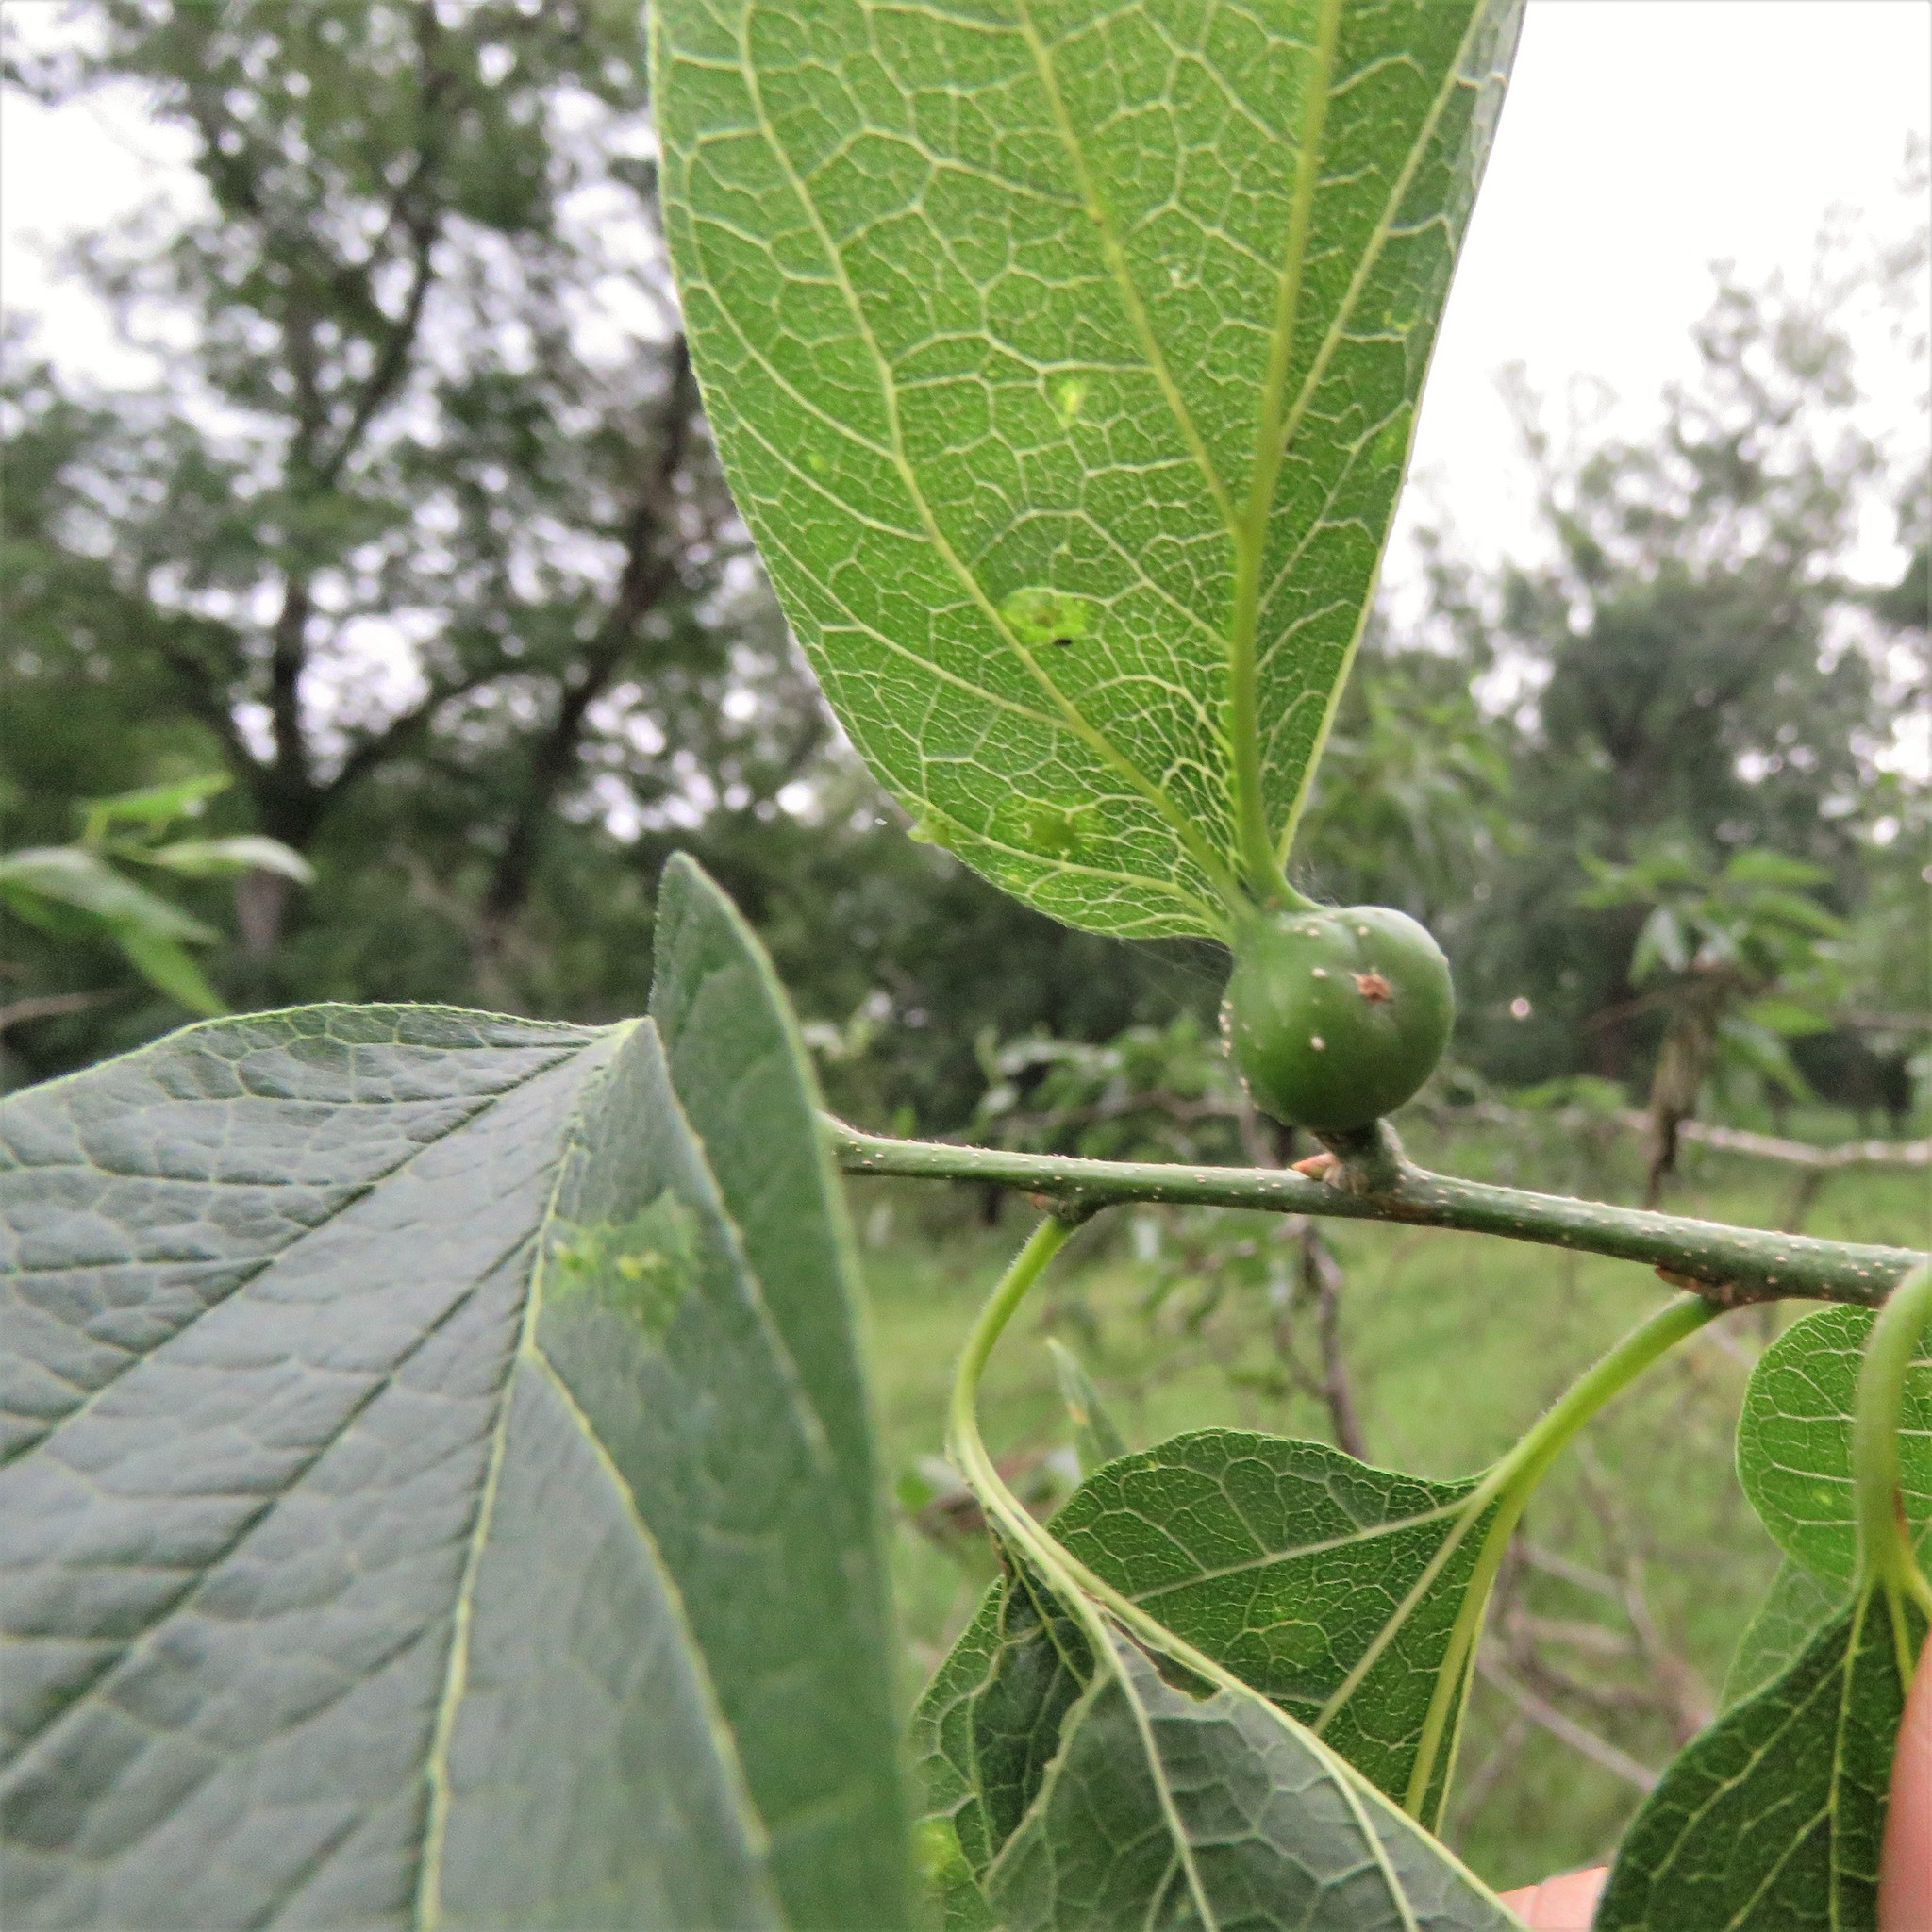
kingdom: Animalia
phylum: Arthropoda
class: Insecta
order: Hemiptera
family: Aphalaridae
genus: Pachypsylla
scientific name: Pachypsylla venusta
